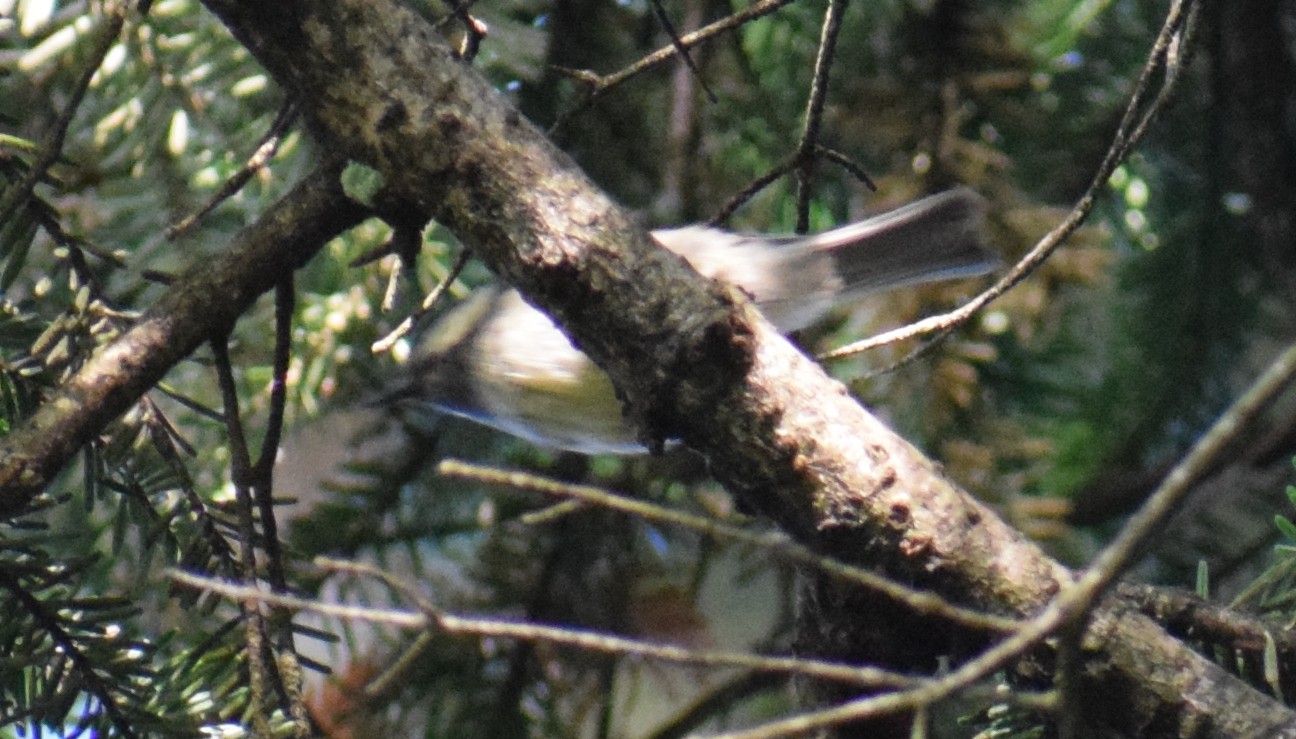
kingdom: Animalia
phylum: Chordata
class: Aves
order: Passeriformes
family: Paridae
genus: Periparus
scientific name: Periparus ater
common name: Coal tit
